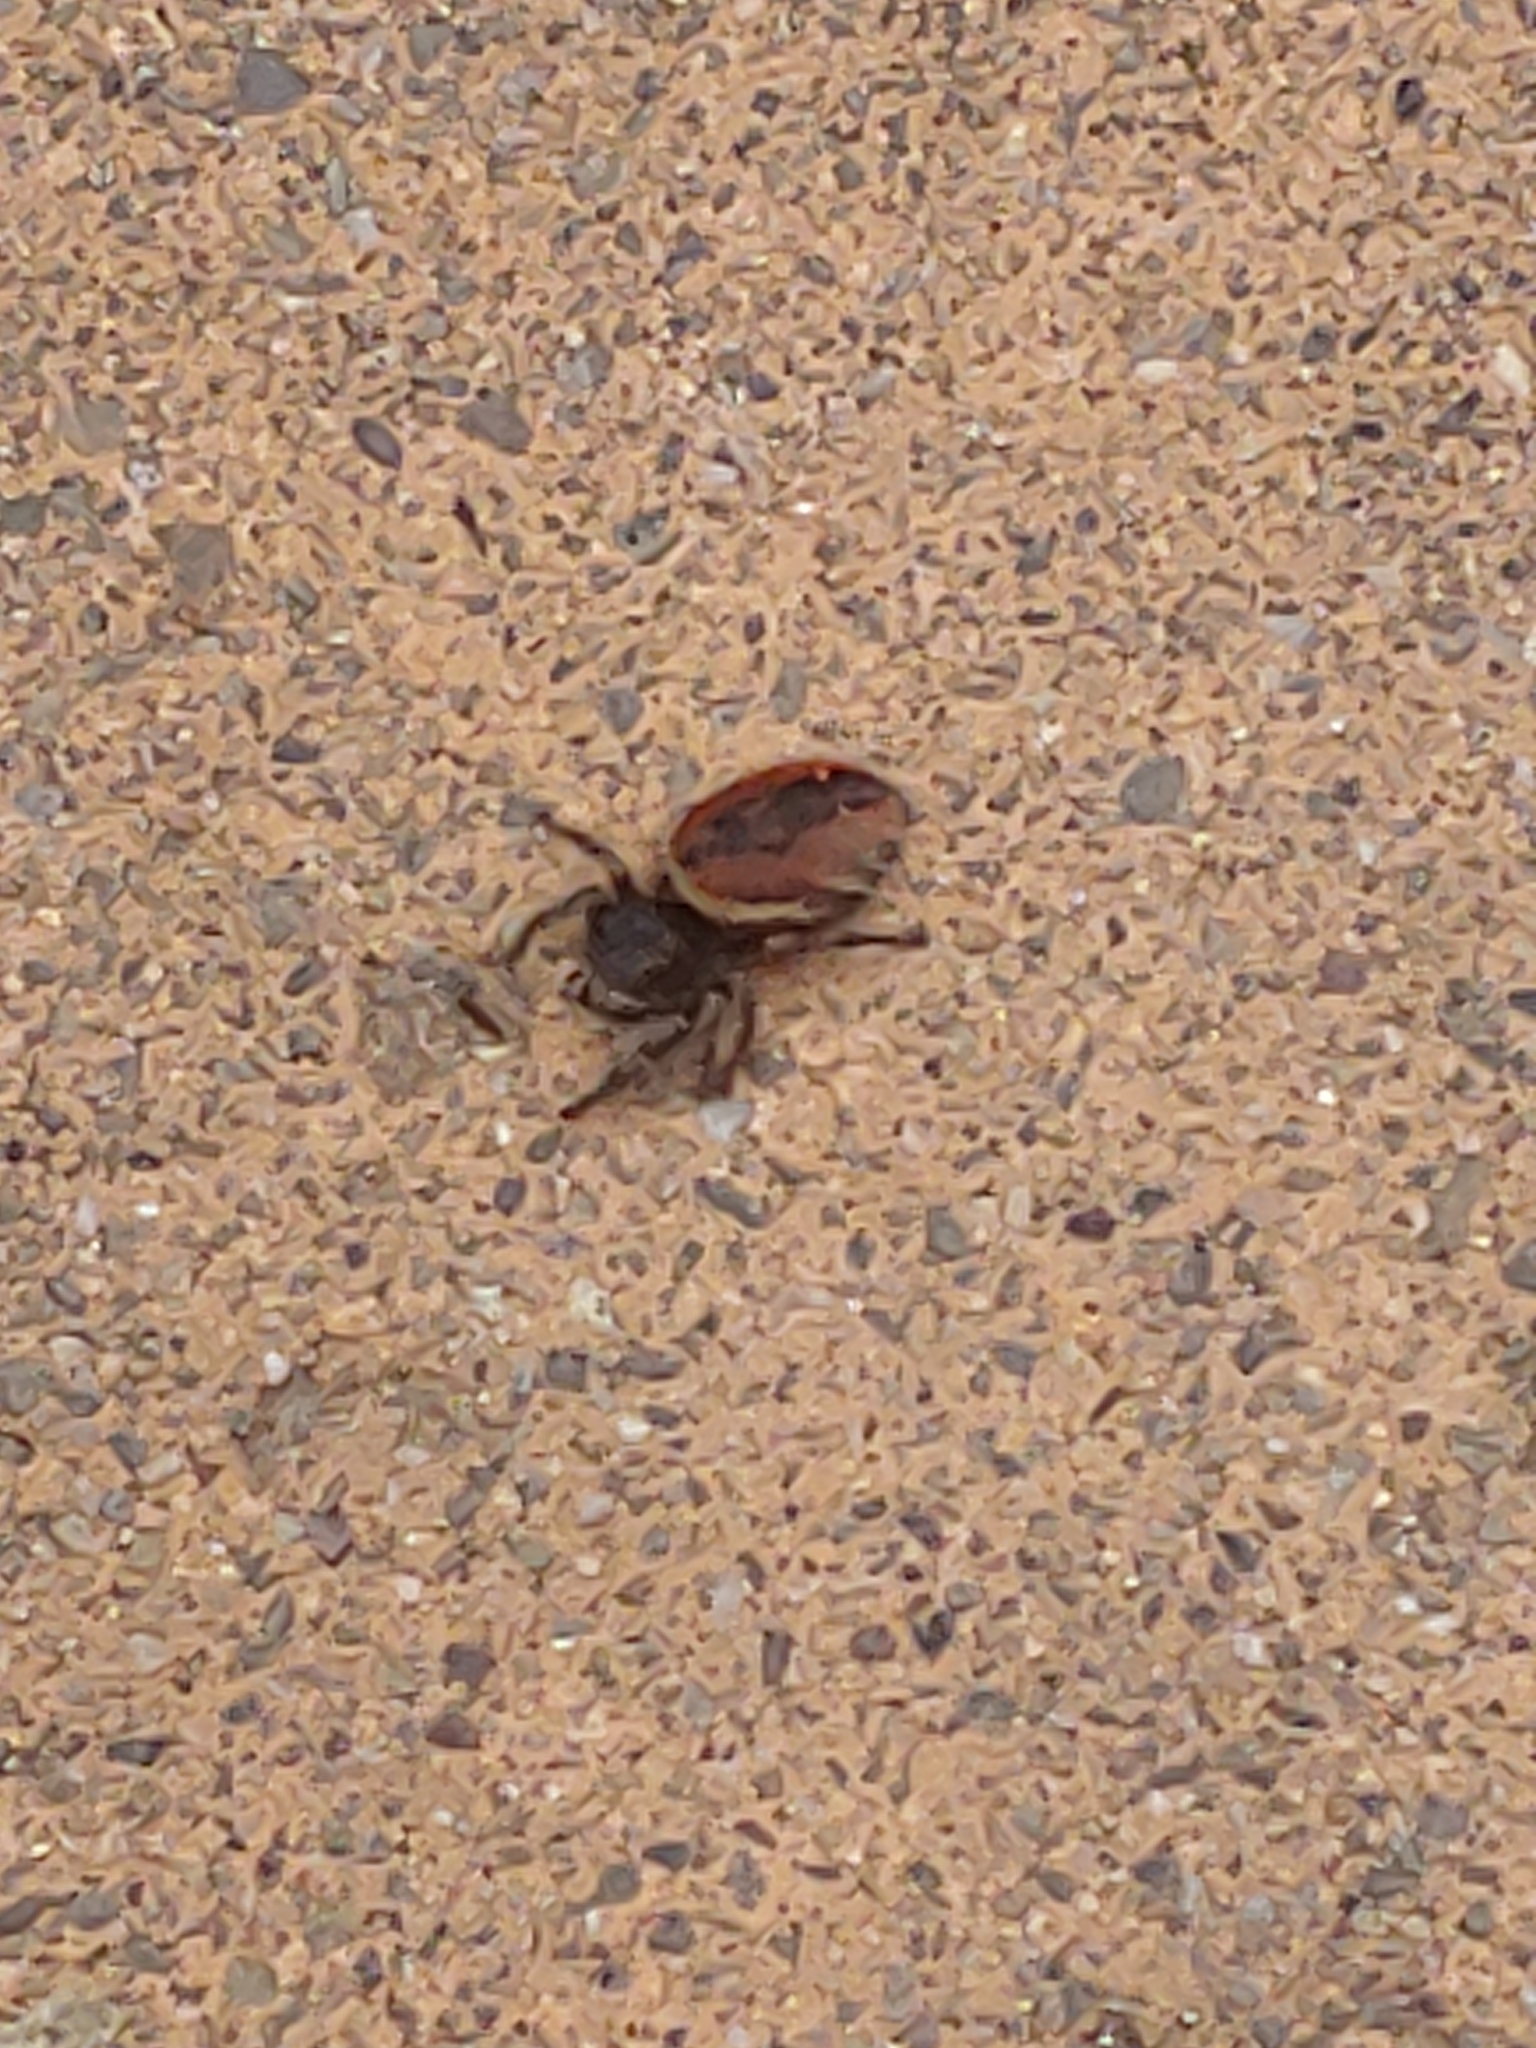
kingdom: Animalia
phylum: Arthropoda
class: Arachnida
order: Araneae
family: Salticidae
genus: Phidippus
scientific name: Phidippus johnsoni
